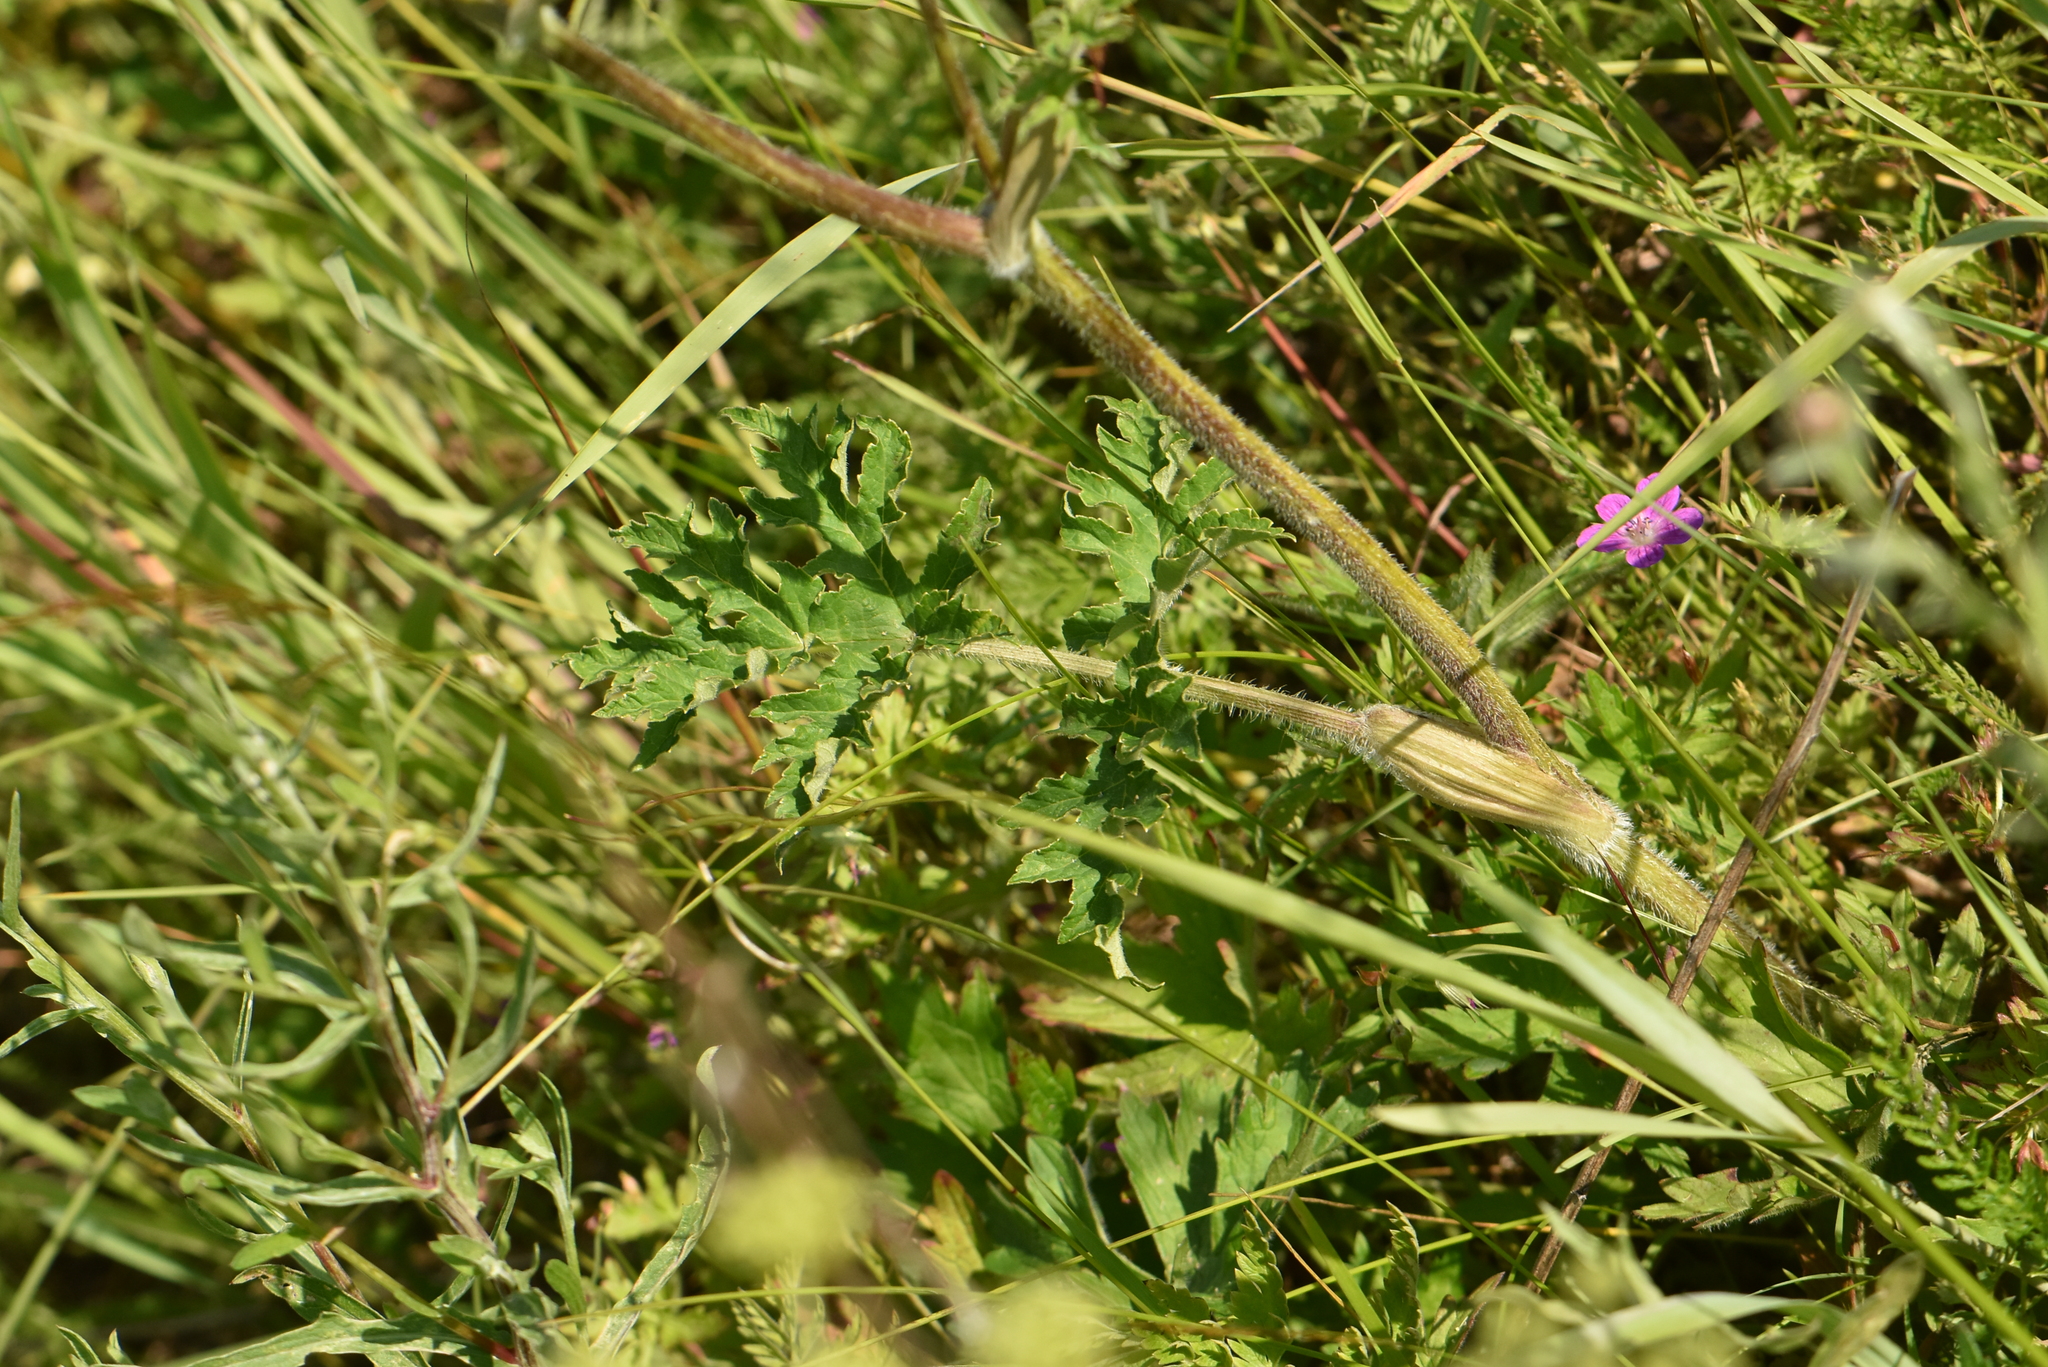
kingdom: Plantae
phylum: Tracheophyta
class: Magnoliopsida
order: Apiales
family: Apiaceae
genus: Heracleum
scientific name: Heracleum sphondylium
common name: Hogweed
